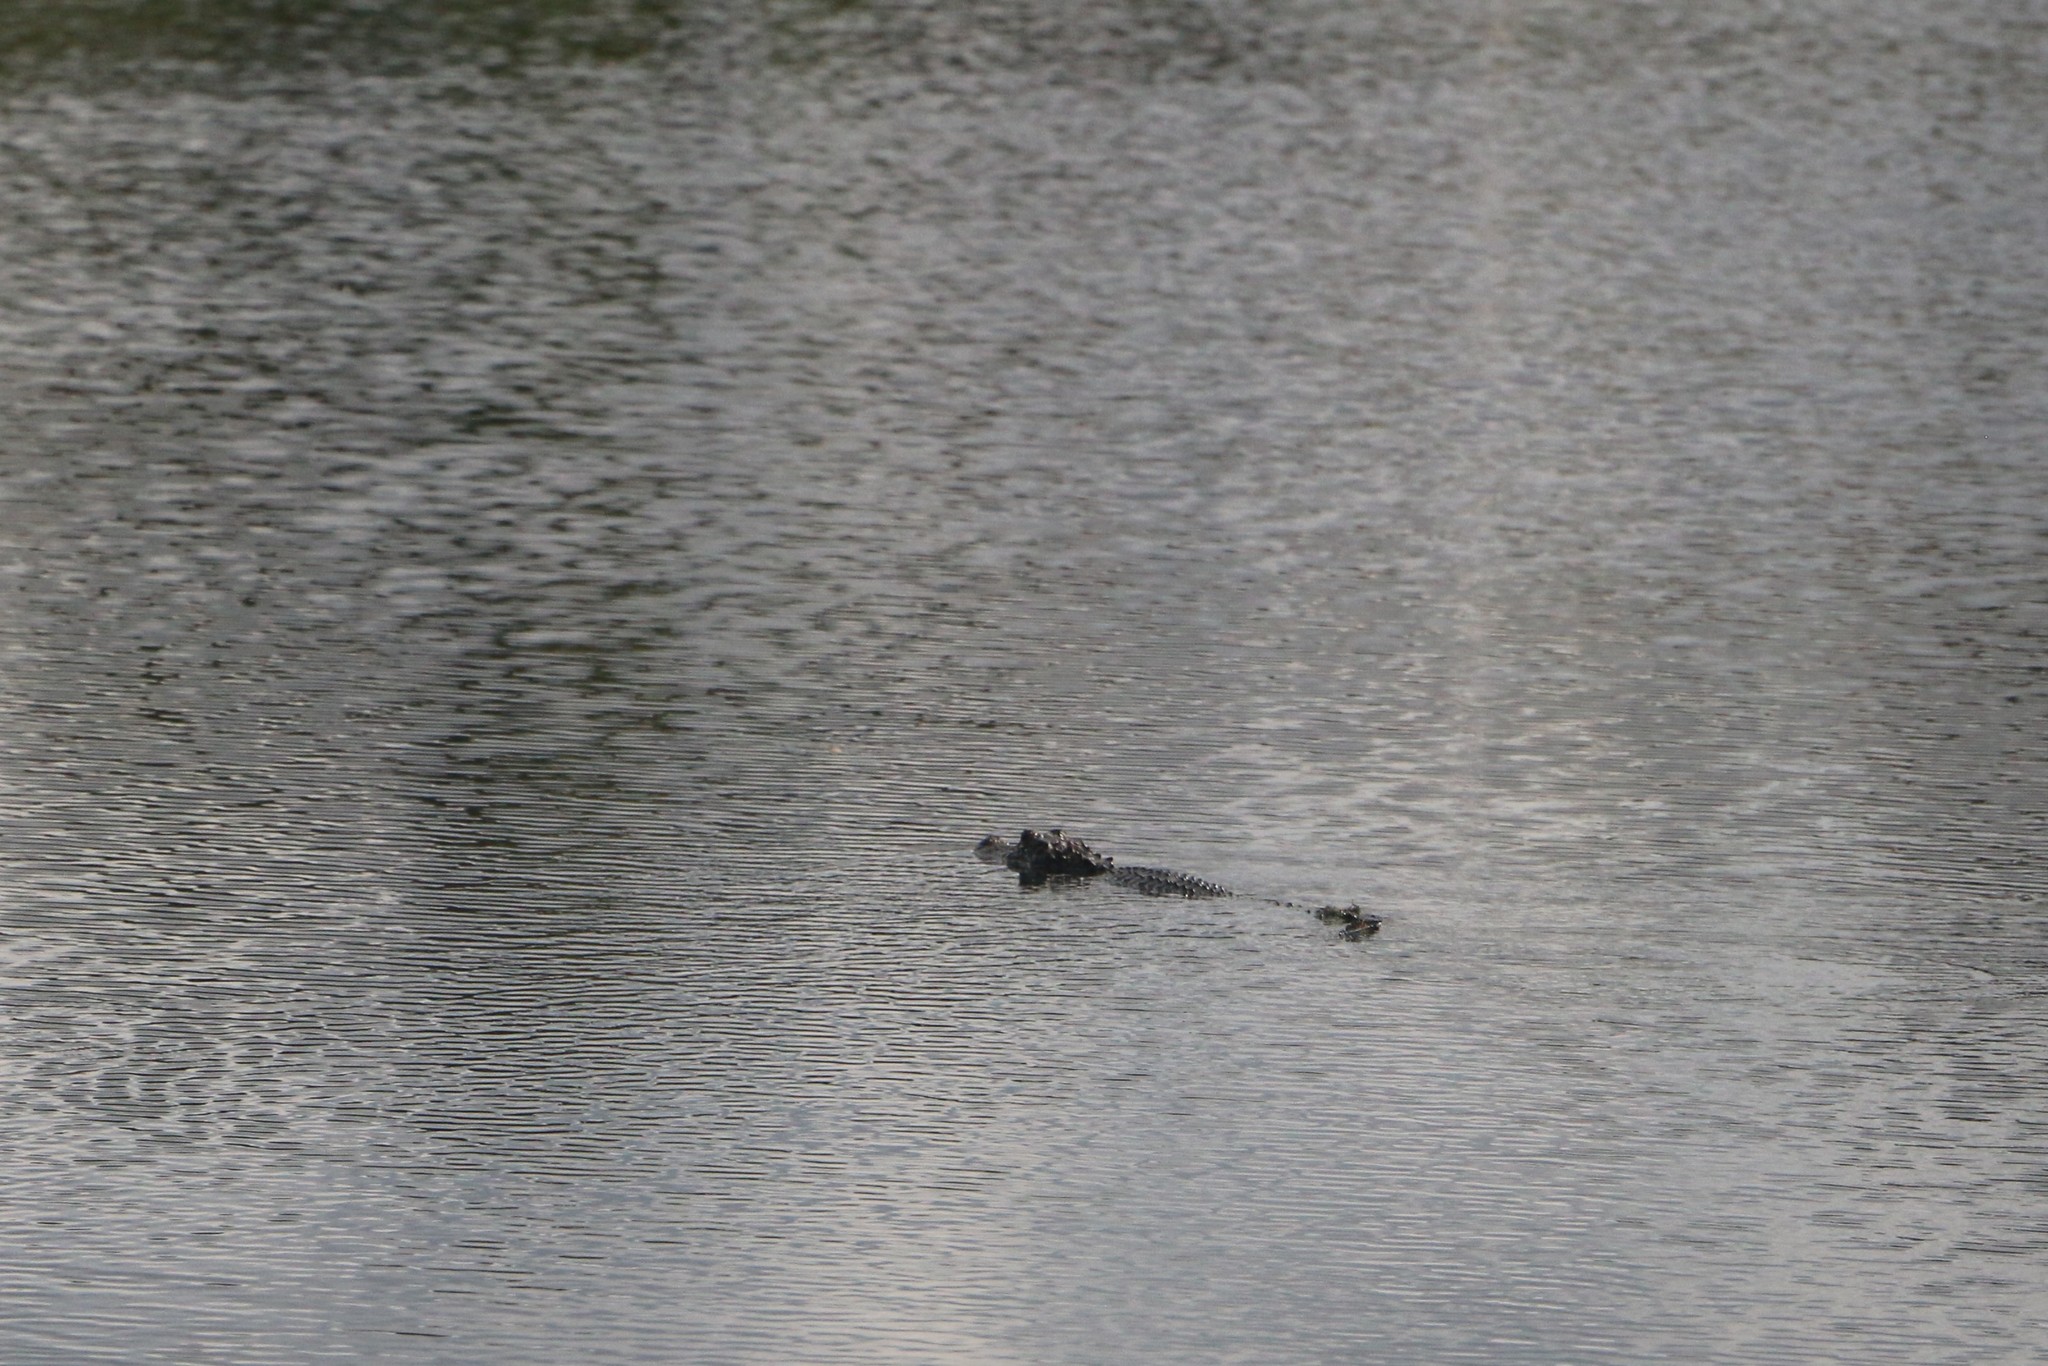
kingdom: Animalia
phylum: Chordata
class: Crocodylia
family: Alligatoridae
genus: Alligator
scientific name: Alligator mississippiensis
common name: American alligator
